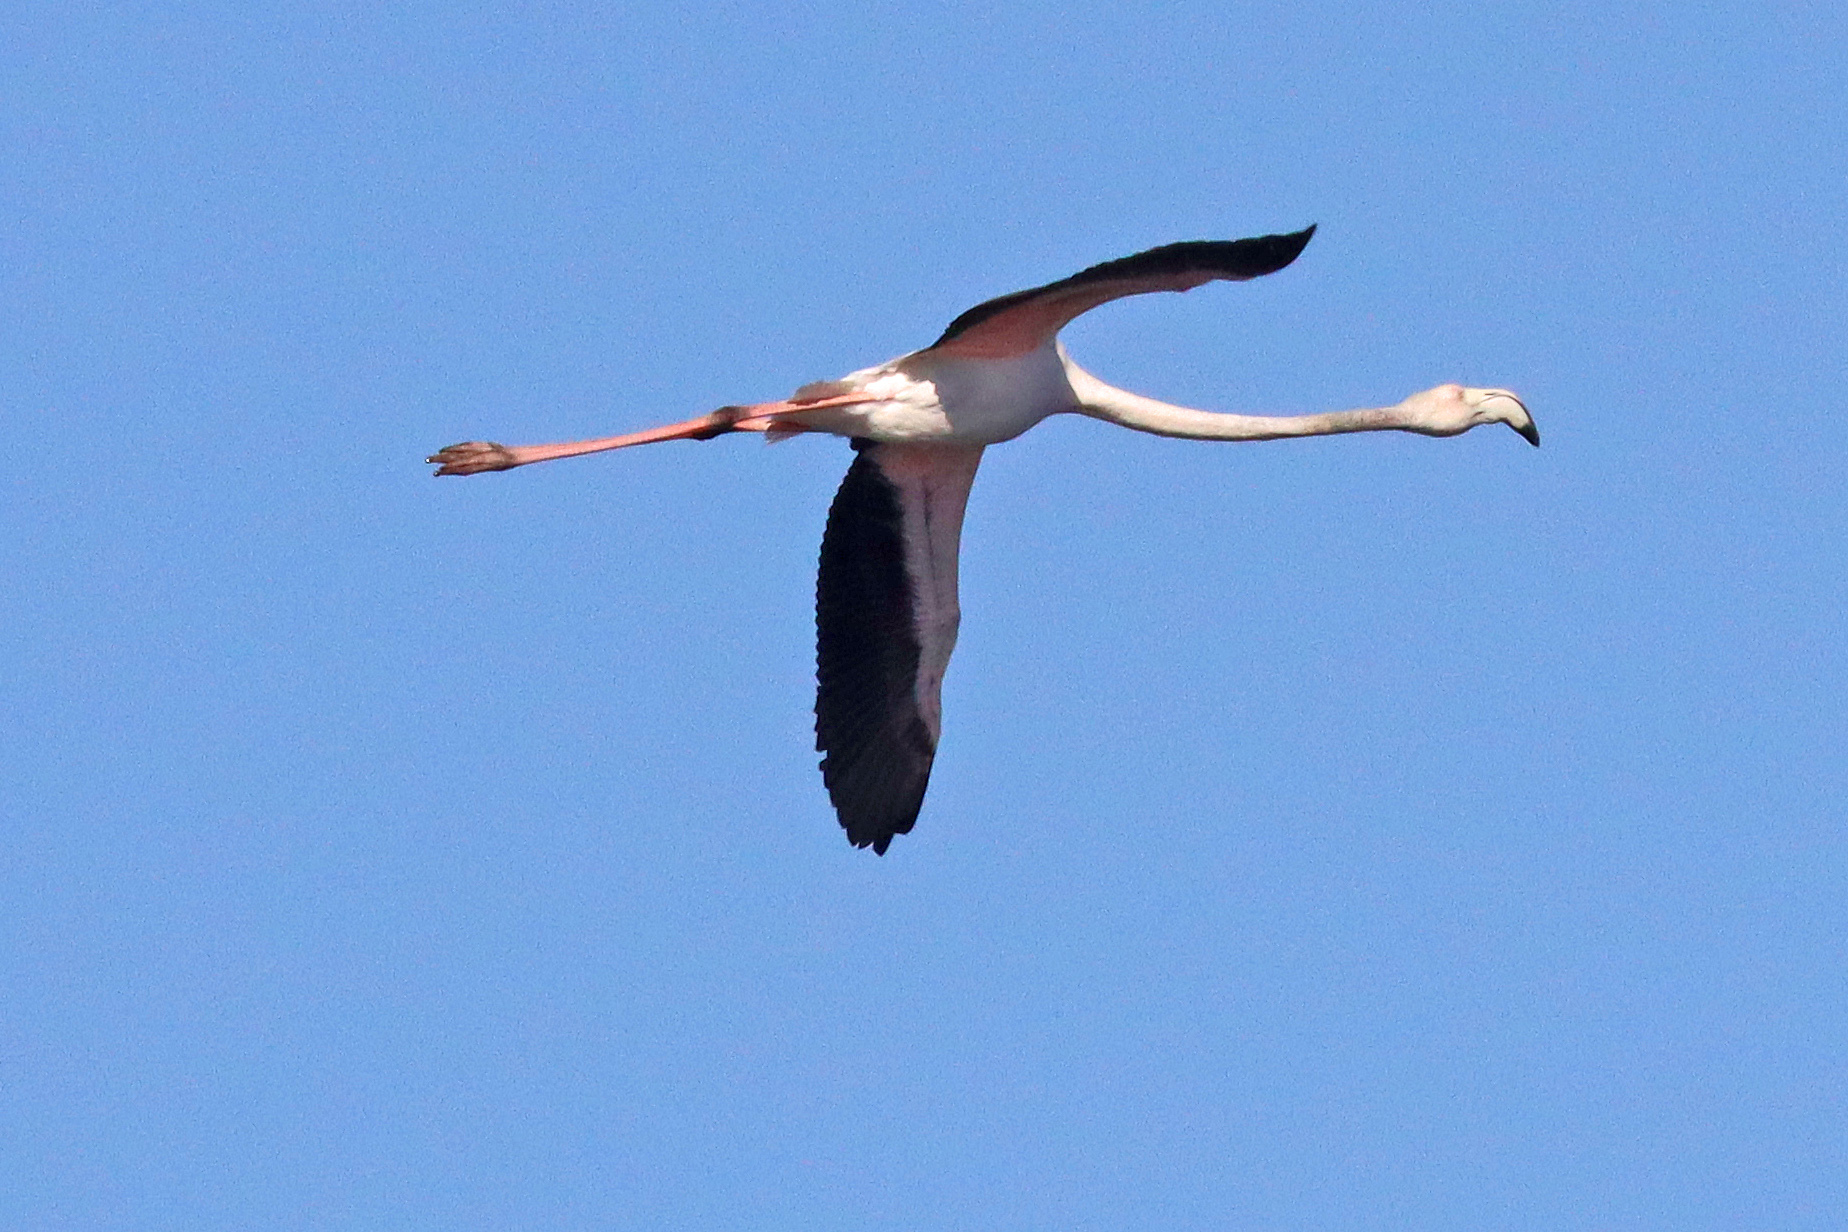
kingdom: Animalia
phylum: Chordata
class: Aves
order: Phoenicopteriformes
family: Phoenicopteridae
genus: Phoenicopterus
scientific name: Phoenicopterus roseus
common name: Greater flamingo
